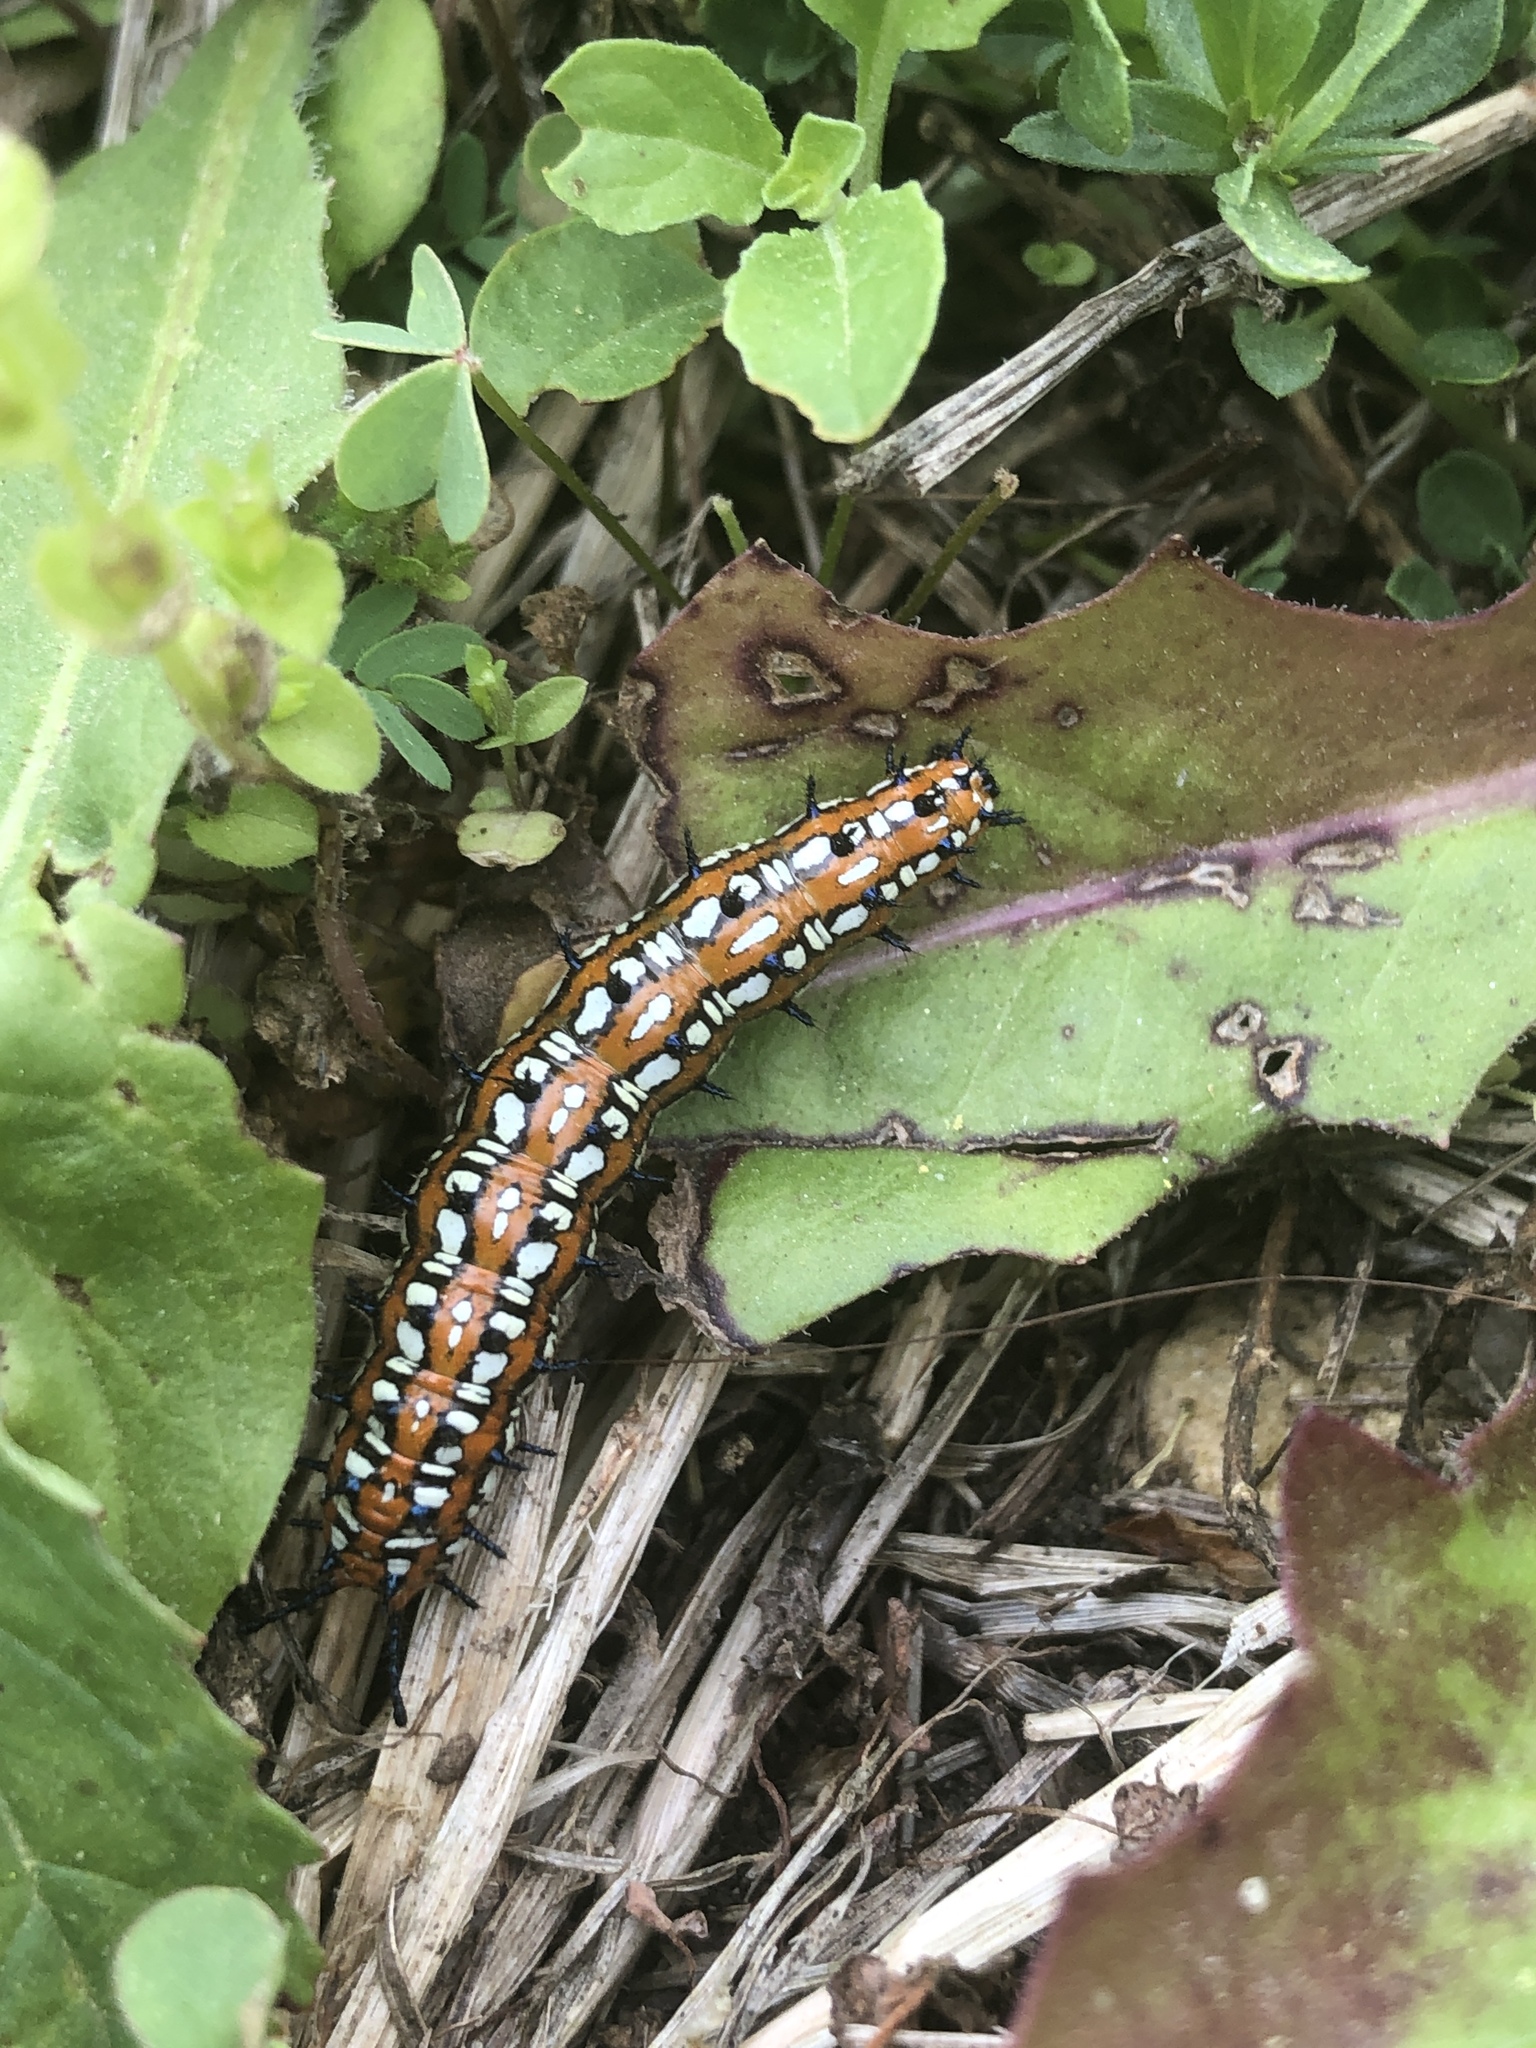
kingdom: Animalia
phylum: Arthropoda
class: Insecta
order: Lepidoptera
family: Nymphalidae
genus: Euptoieta
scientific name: Euptoieta claudia
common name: Variegated fritillary
